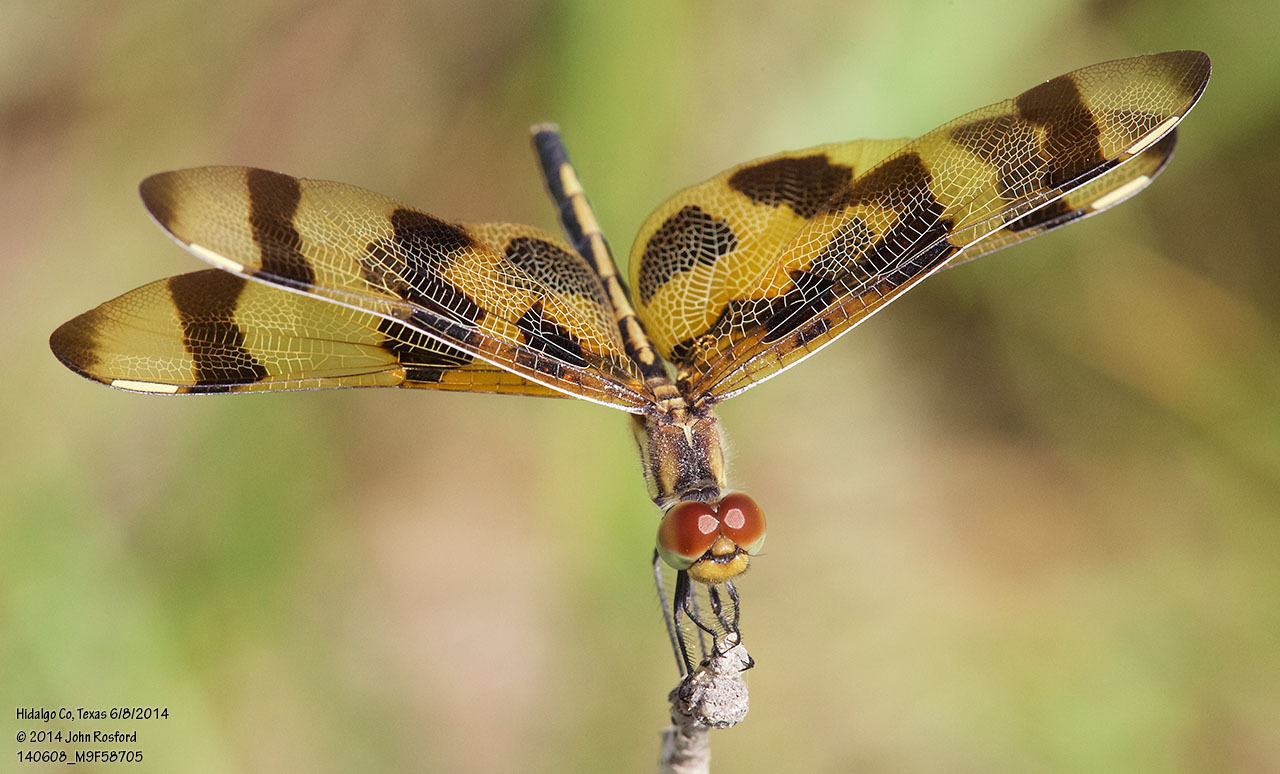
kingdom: Animalia
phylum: Arthropoda
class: Insecta
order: Odonata
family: Libellulidae
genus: Celithemis
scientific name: Celithemis eponina
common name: Halloween pennant
